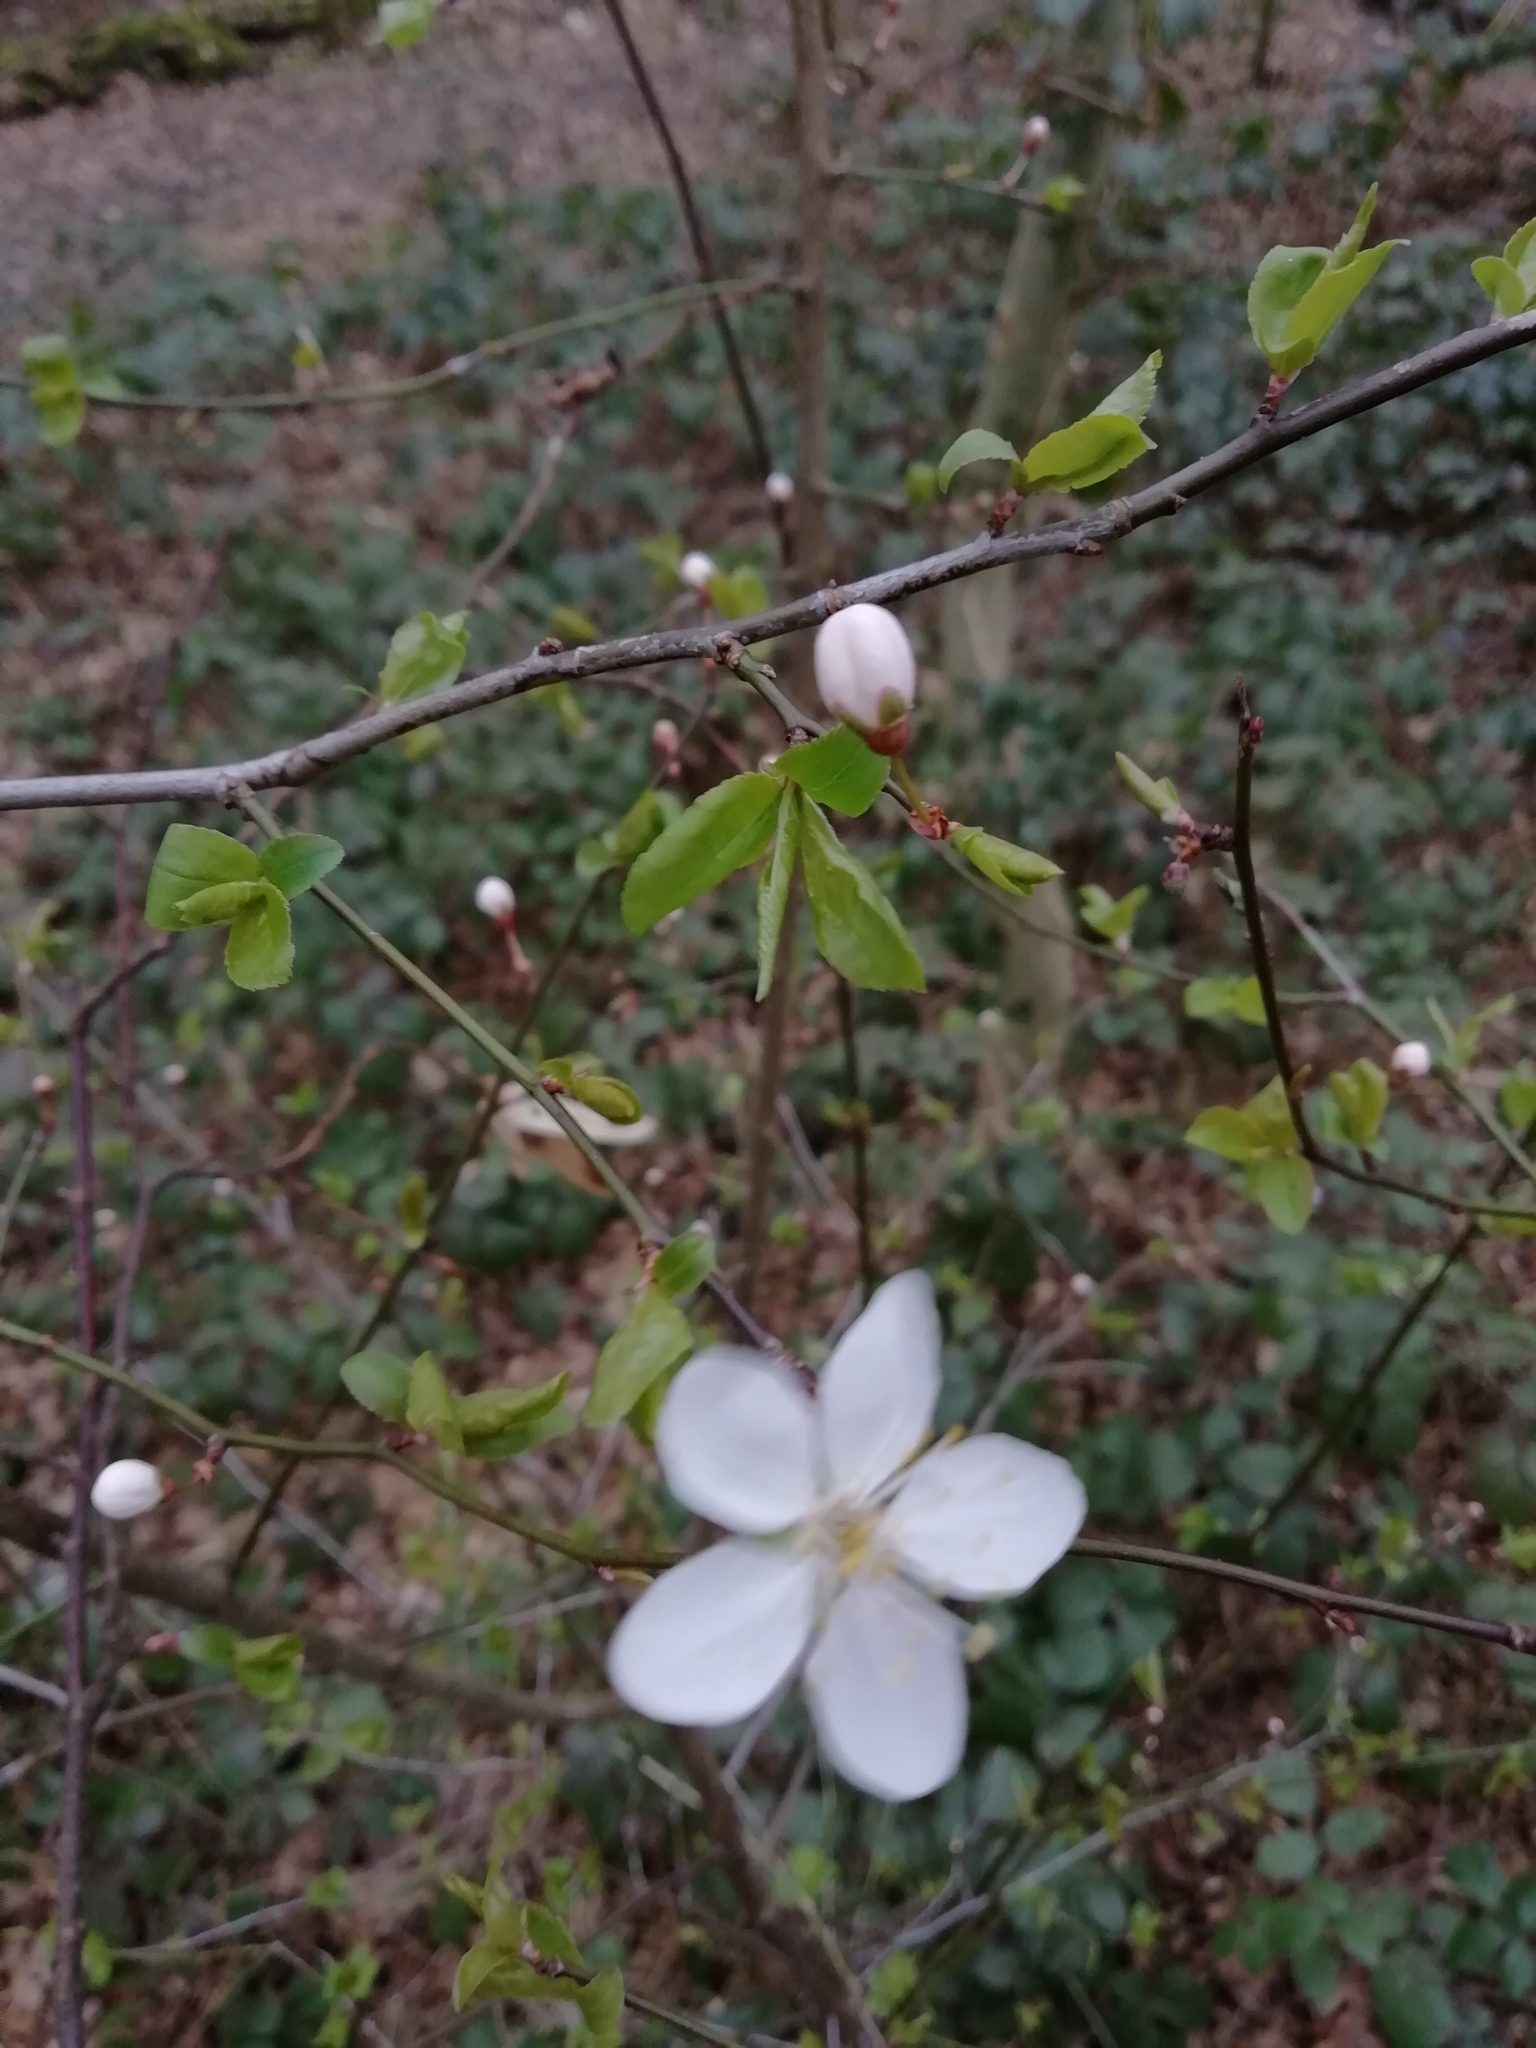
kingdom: Plantae
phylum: Tracheophyta
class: Magnoliopsida
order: Rosales
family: Rosaceae
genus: Prunus
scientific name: Prunus cerasifera
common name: Cherry plum
